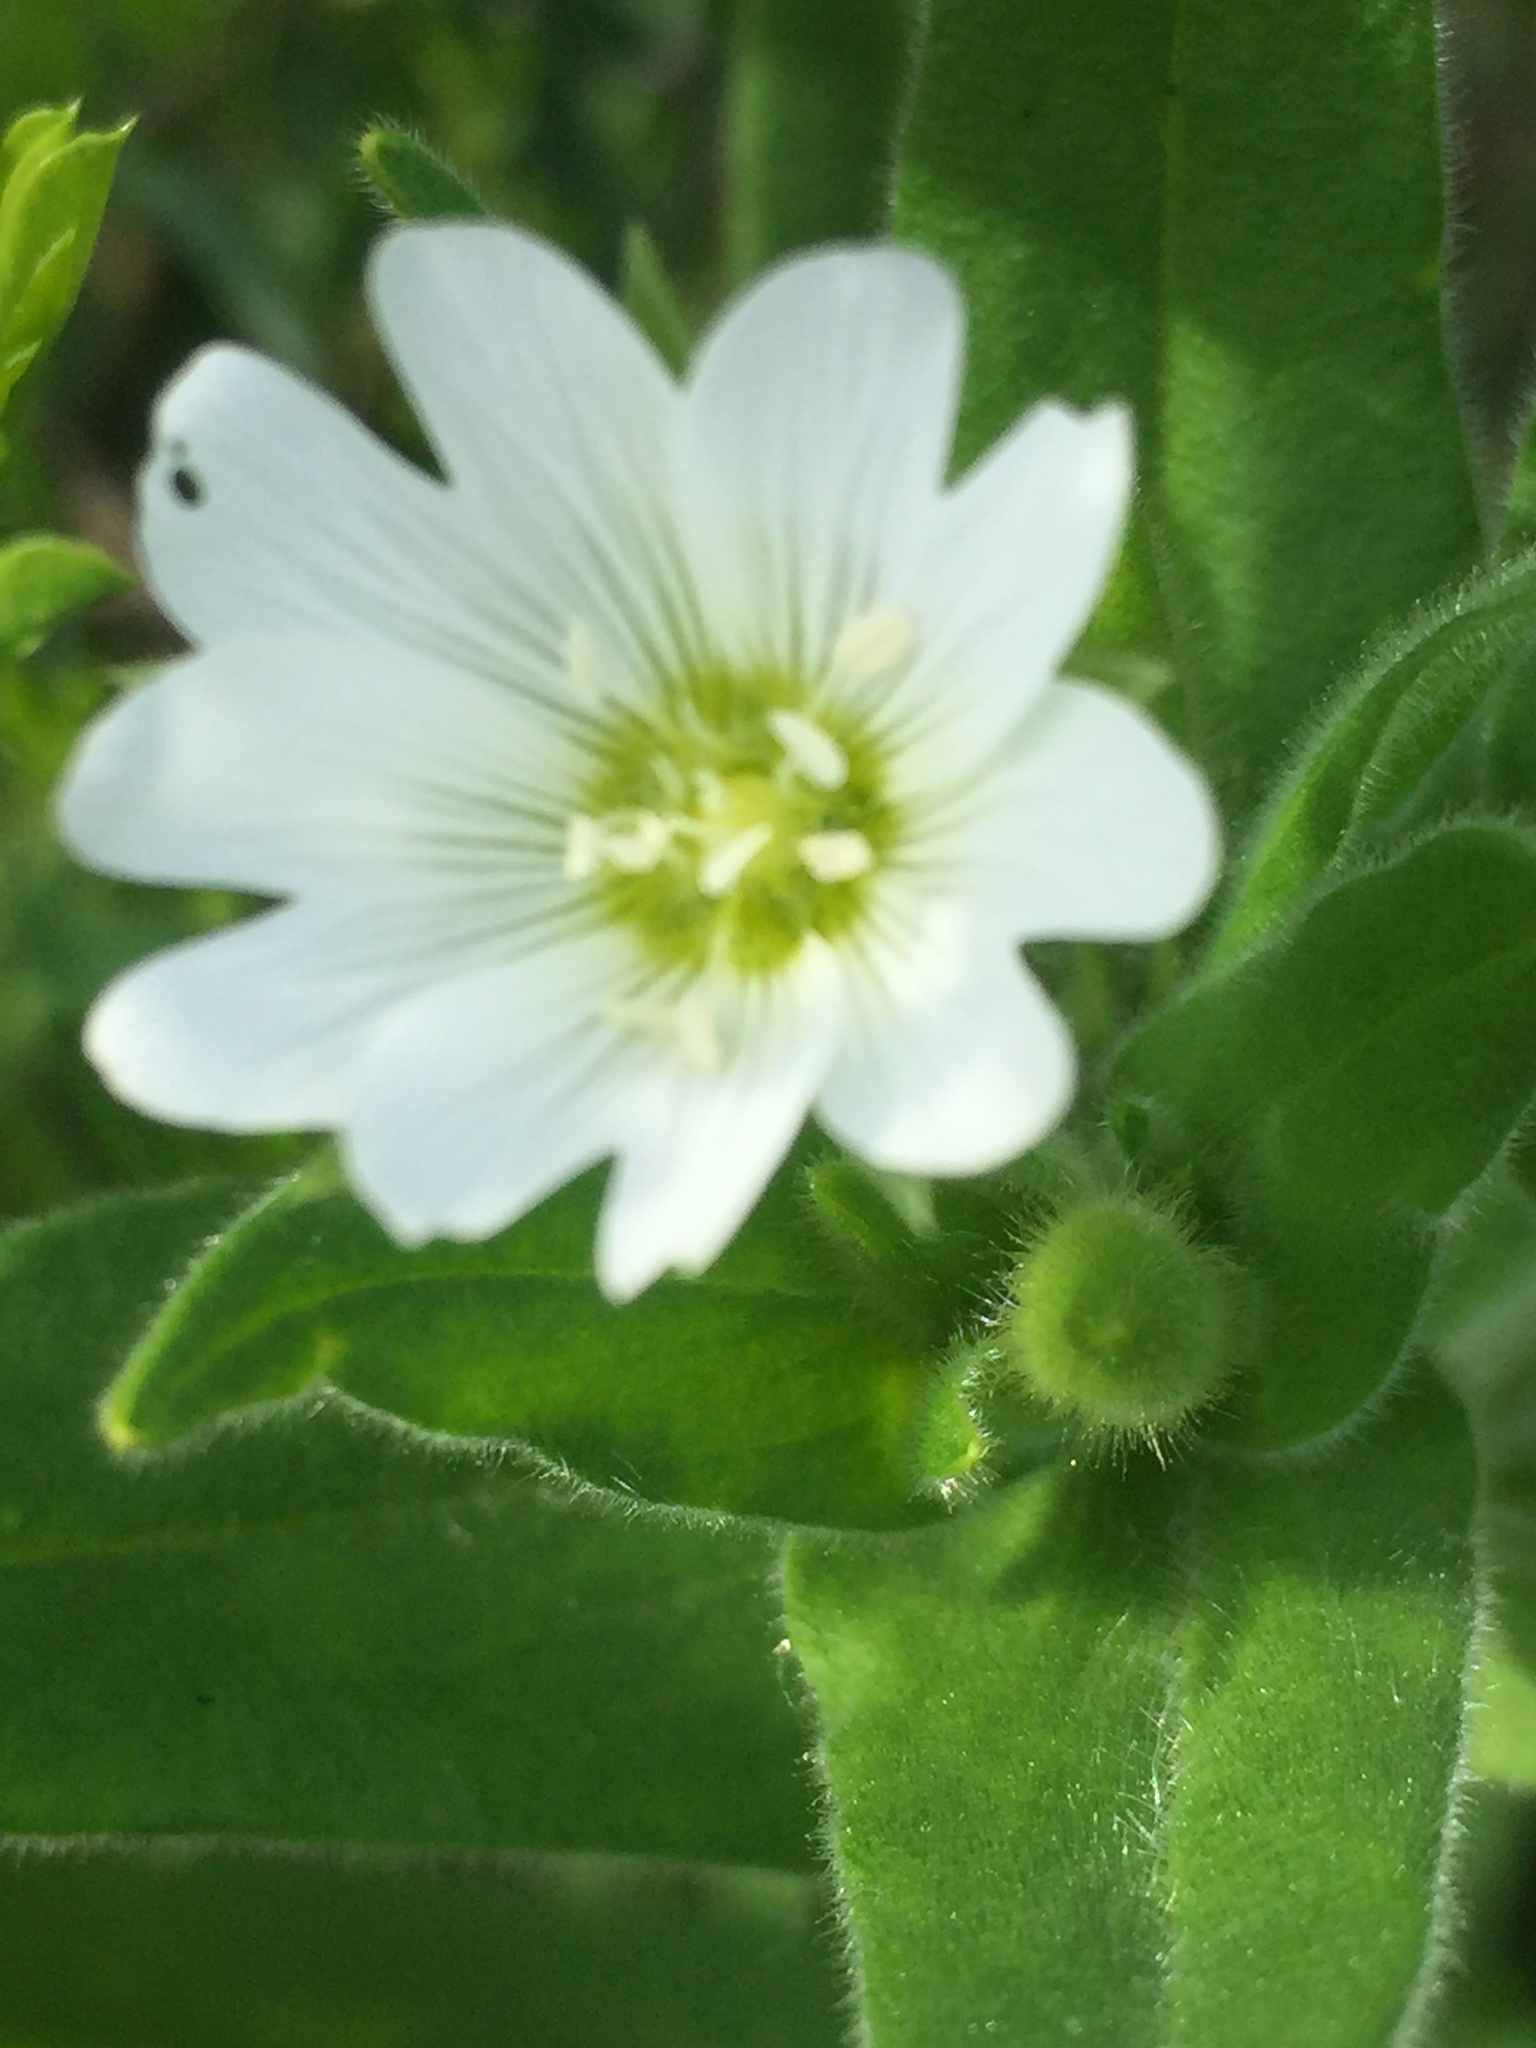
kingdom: Plantae
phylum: Tracheophyta
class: Magnoliopsida
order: Caryophyllales
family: Caryophyllaceae
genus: Cerastium
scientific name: Cerastium nemorale
